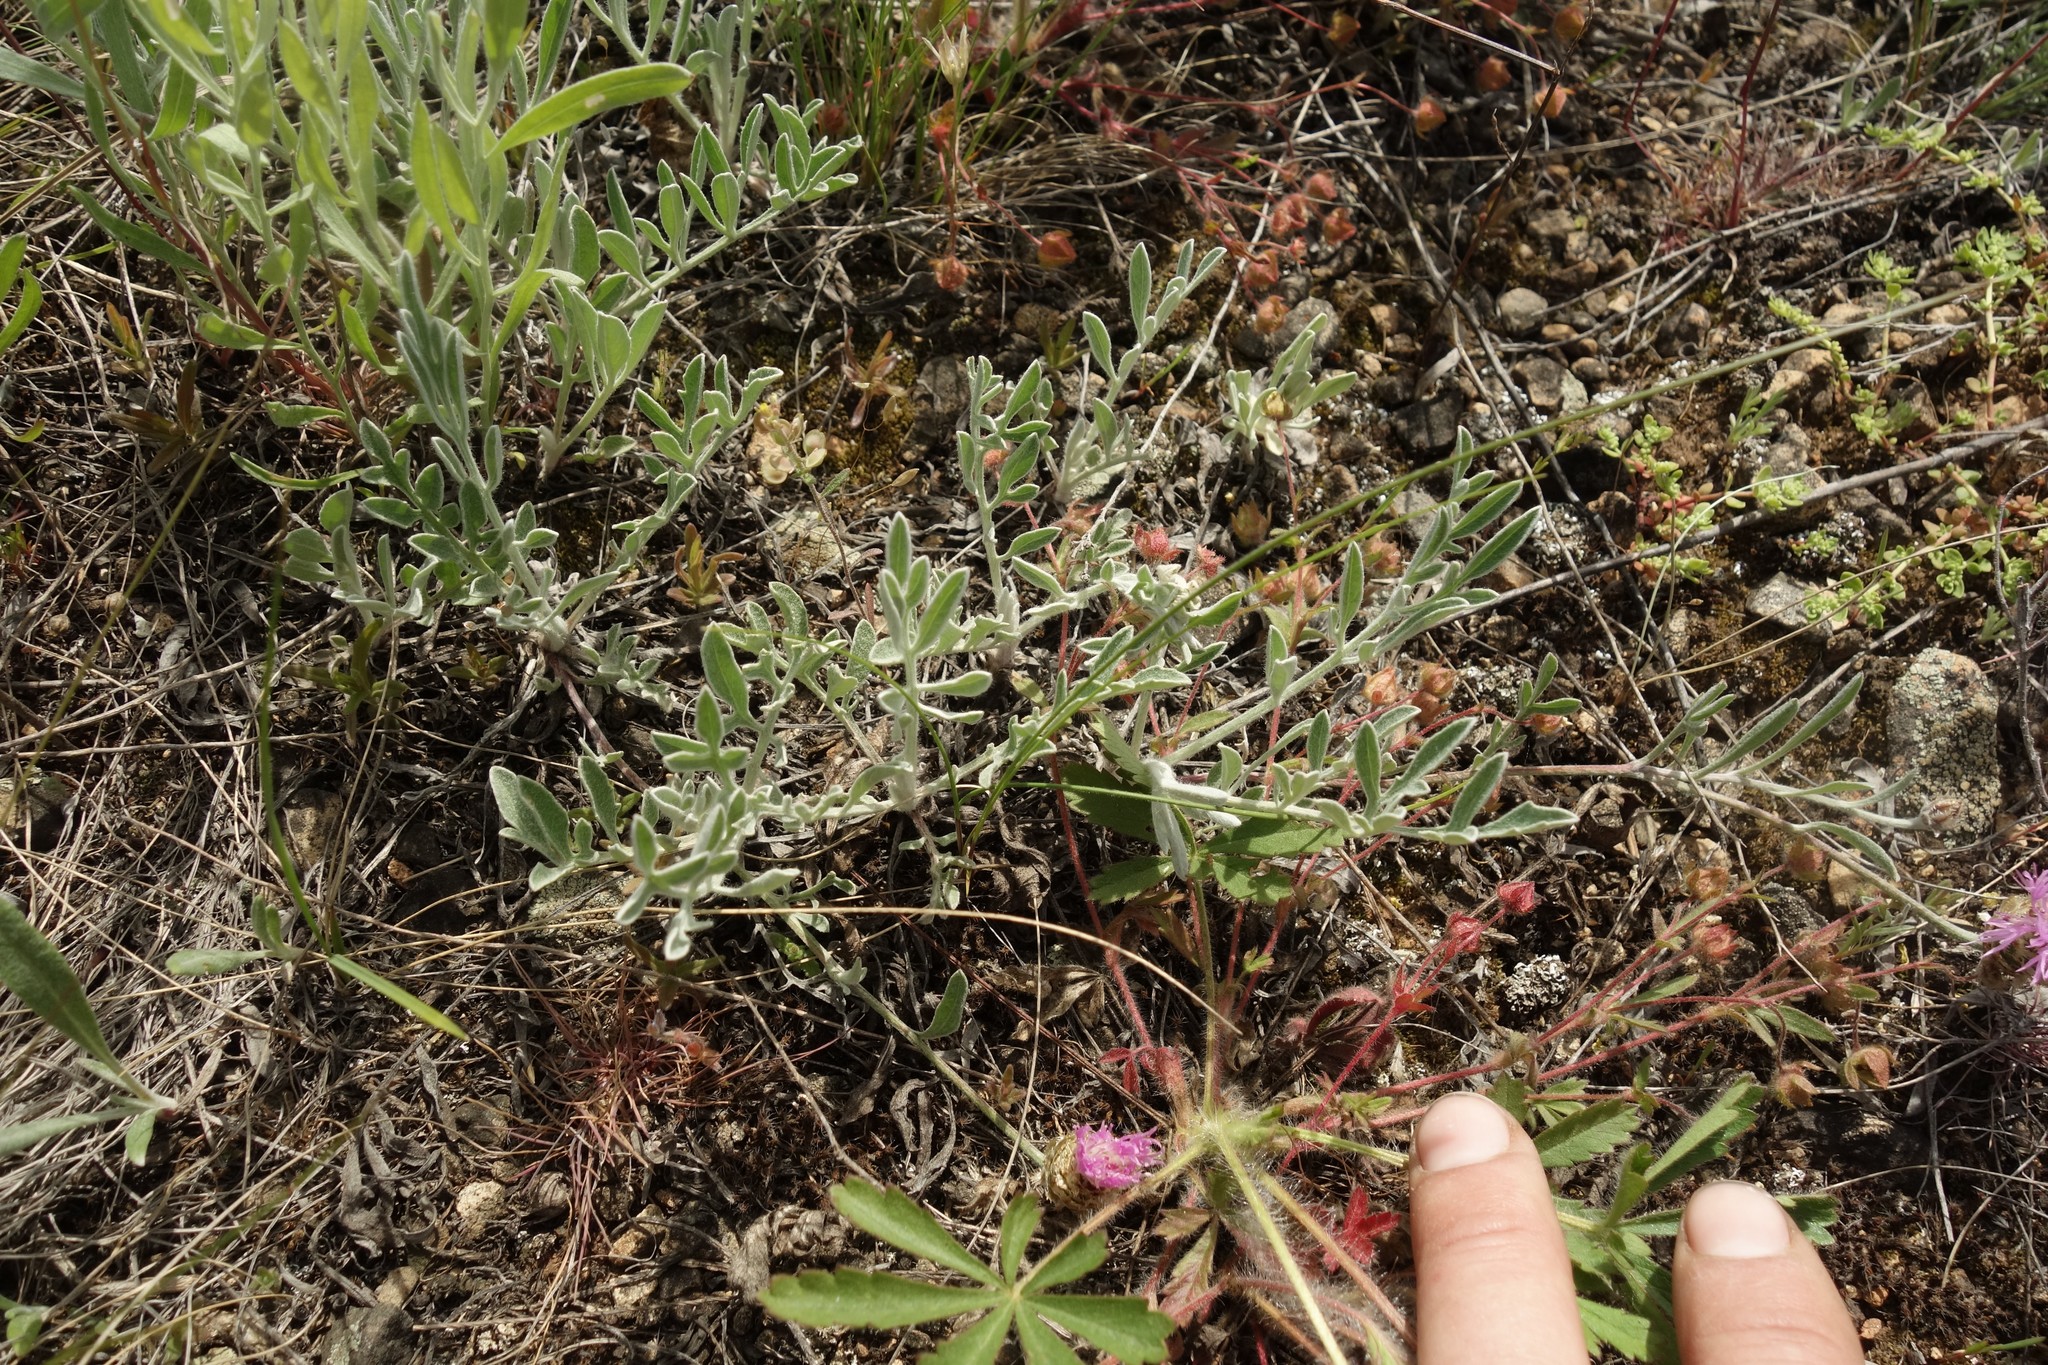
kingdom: Plantae
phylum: Tracheophyta
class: Magnoliopsida
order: Asterales
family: Asteraceae
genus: Psephellus
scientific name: Psephellus marschallianus
